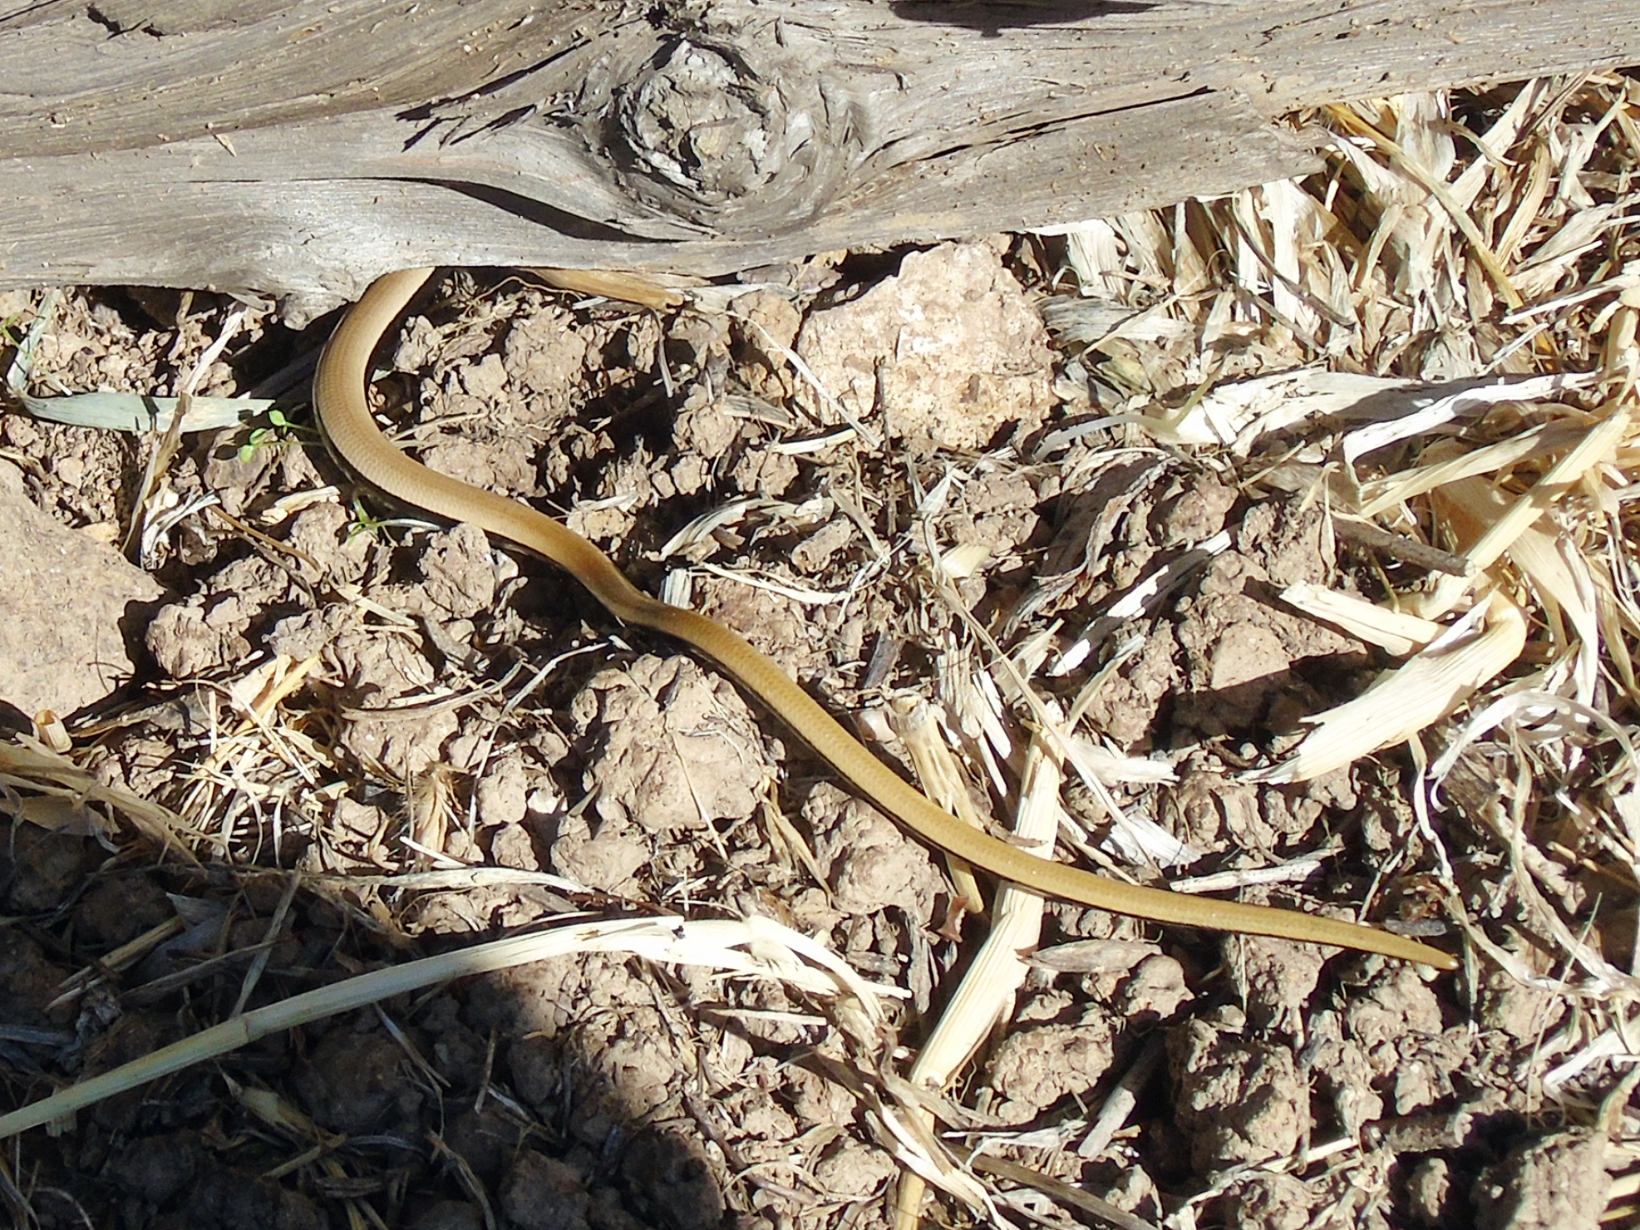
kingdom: Animalia
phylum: Chordata
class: Squamata
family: Anguidae
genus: Anguis
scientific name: Anguis cephallonica
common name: Peloponnese slow worm
